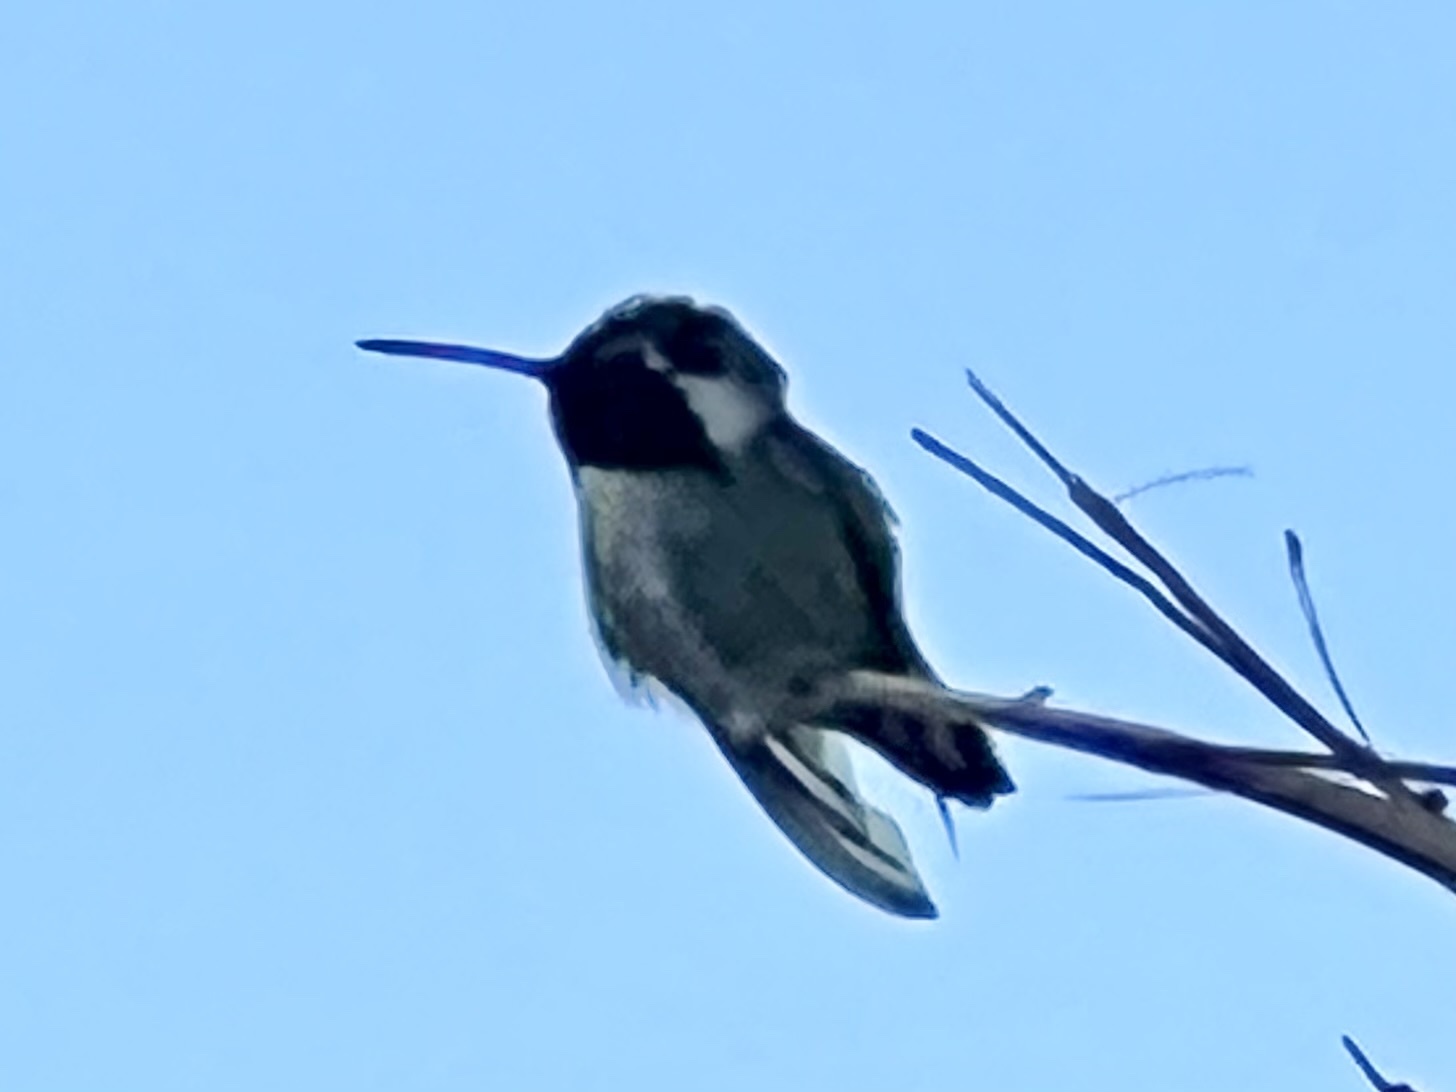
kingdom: Animalia
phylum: Chordata
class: Aves
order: Apodiformes
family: Trochilidae
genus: Calypte
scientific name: Calypte costae
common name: Costa's hummingbird
